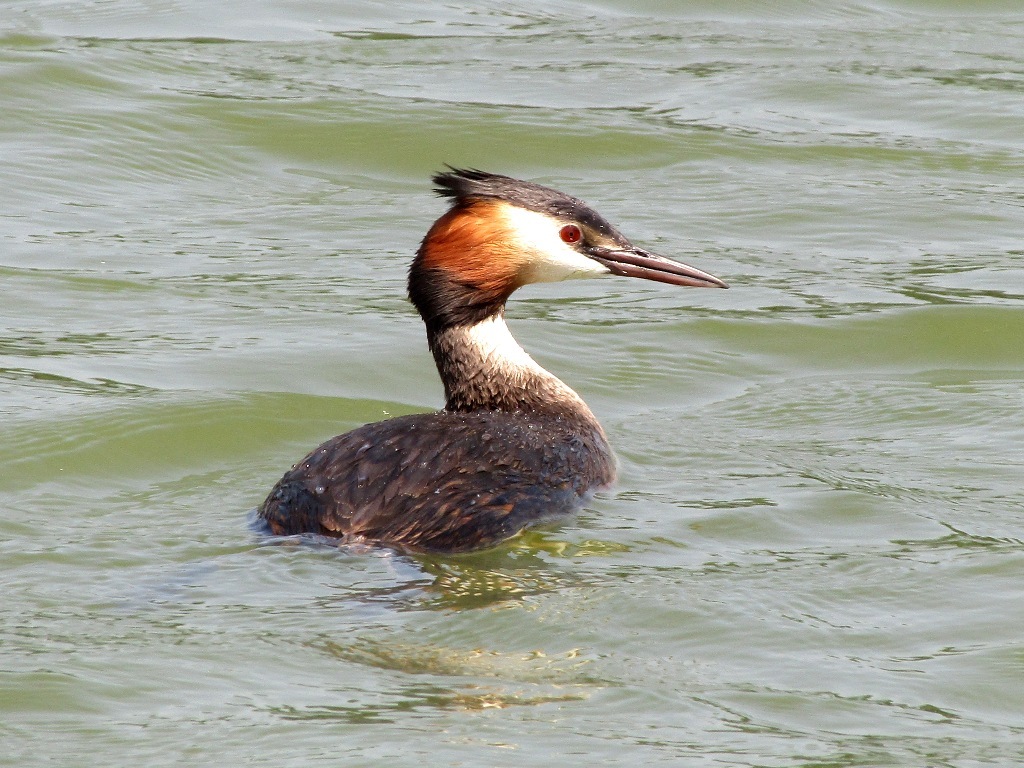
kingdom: Animalia
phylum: Chordata
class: Aves
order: Podicipediformes
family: Podicipedidae
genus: Podiceps
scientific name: Podiceps cristatus
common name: Great crested grebe
